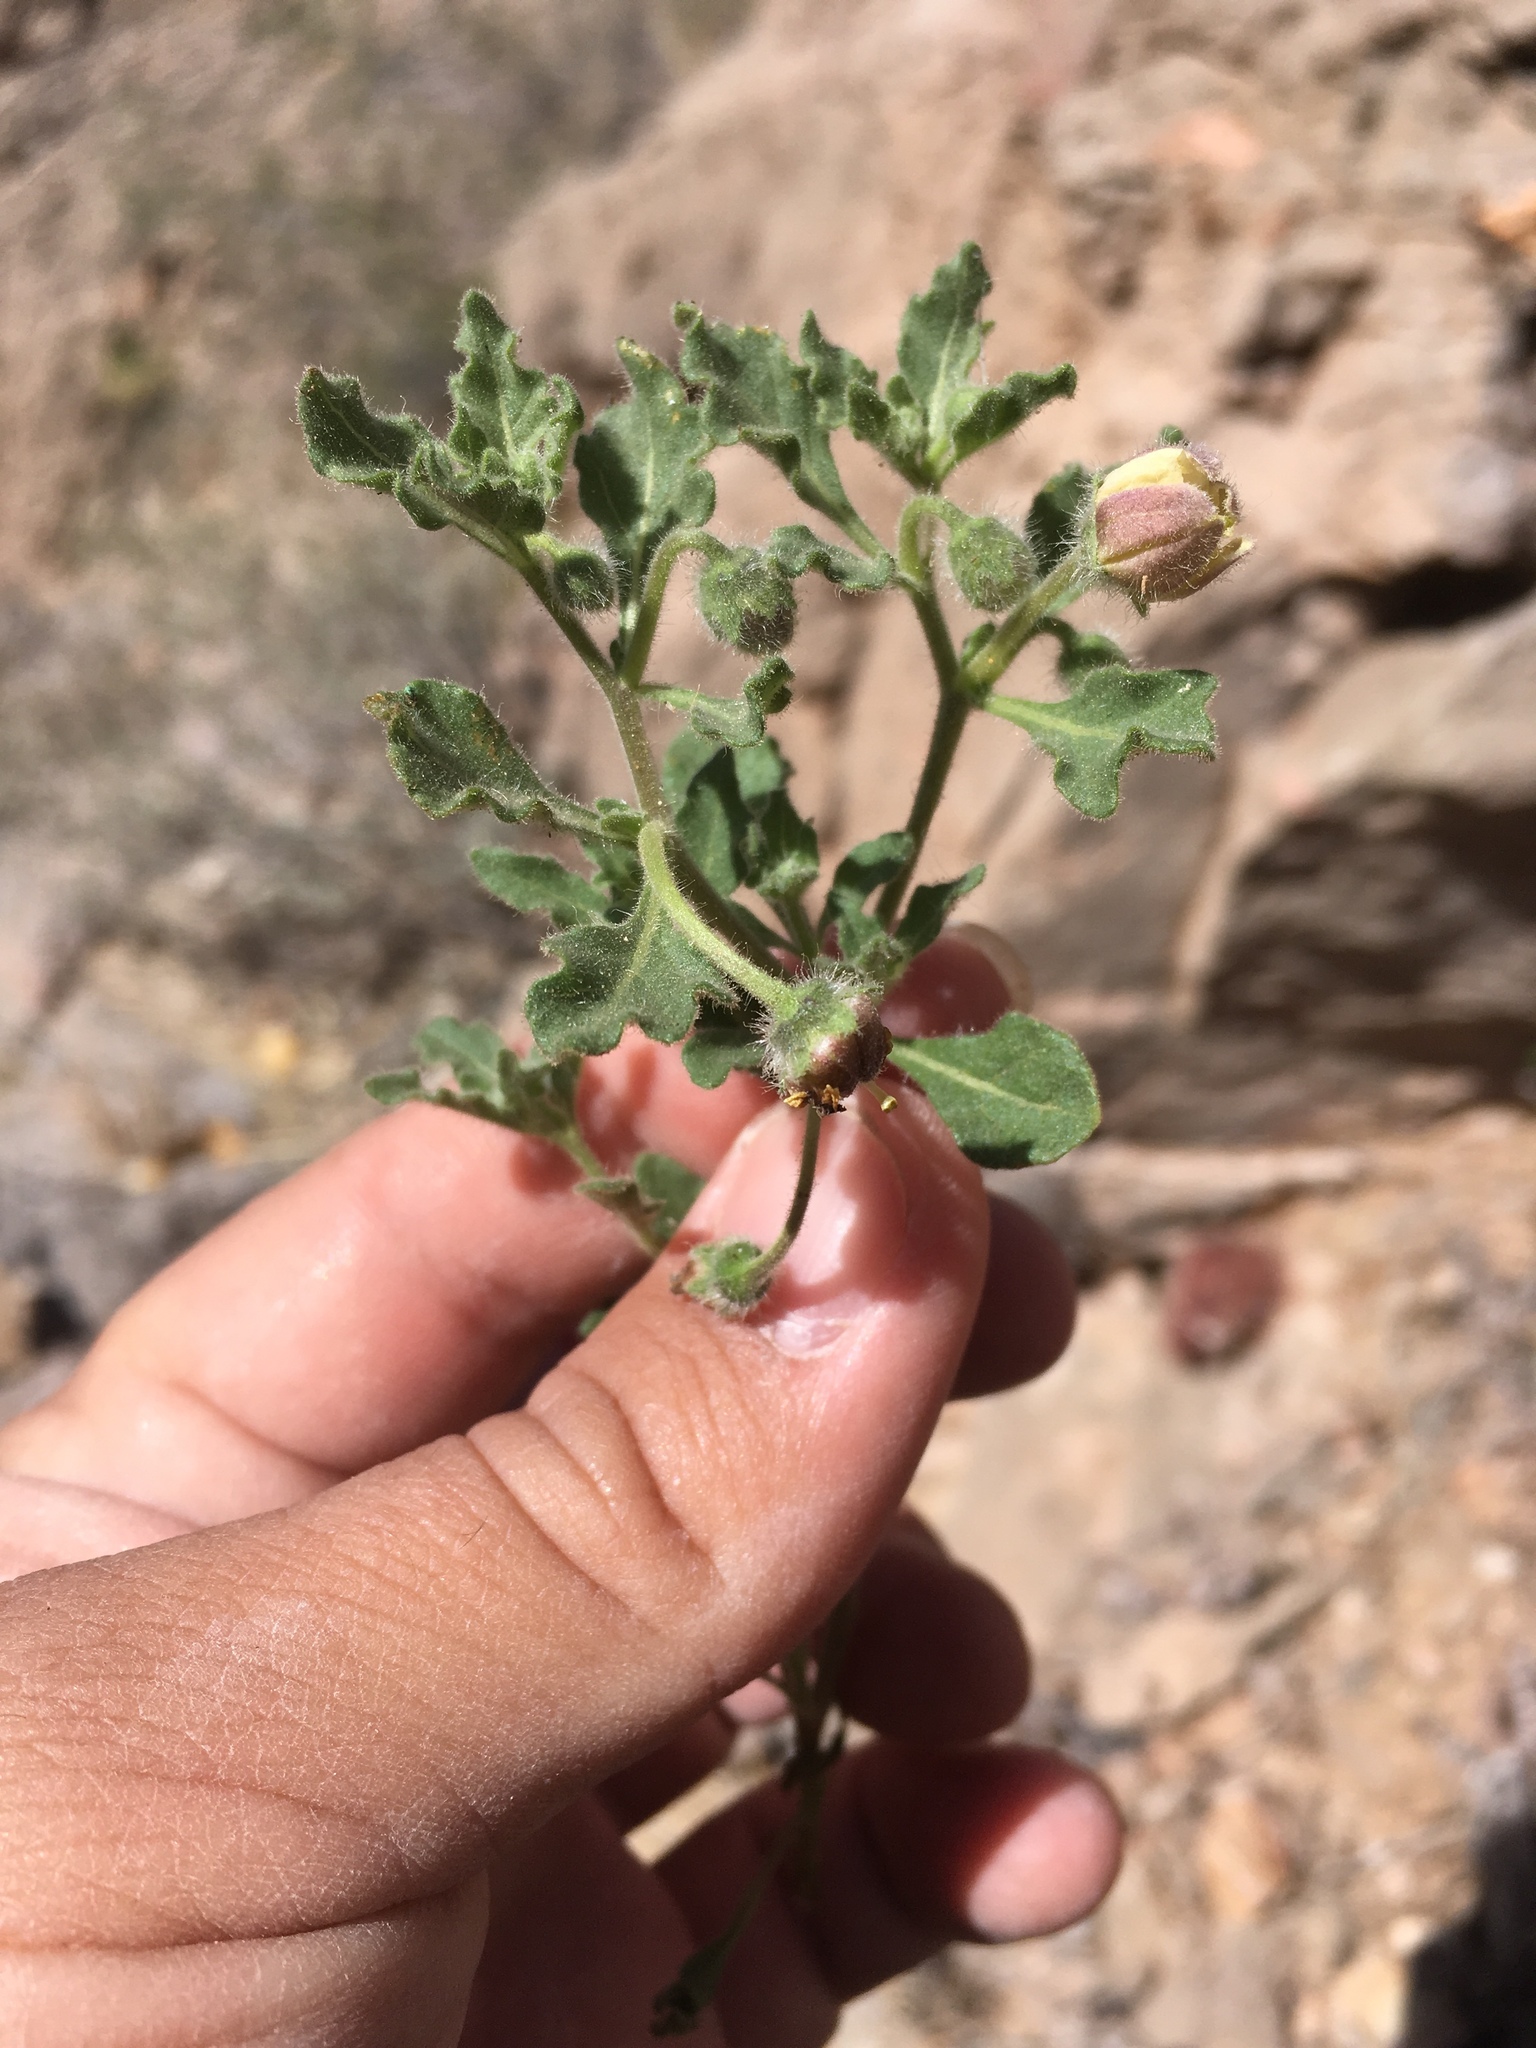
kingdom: Plantae
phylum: Tracheophyta
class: Magnoliopsida
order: Solanales
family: Solanaceae
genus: Chamaesaracha
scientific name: Chamaesaracha sordida
